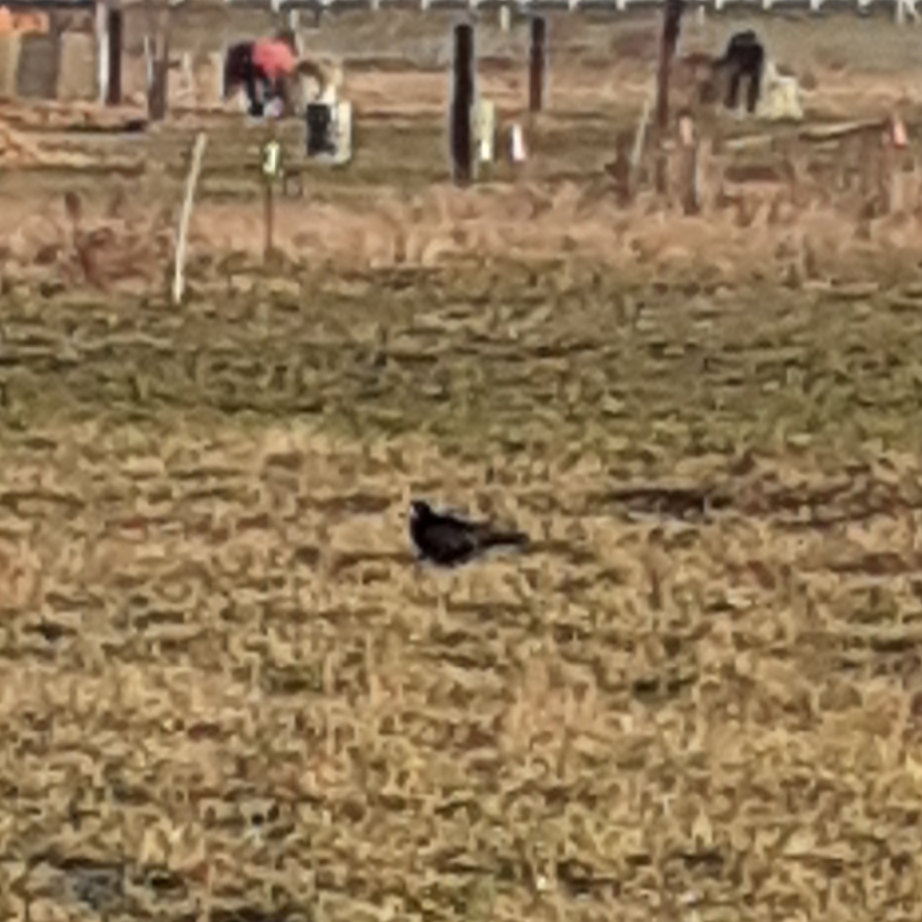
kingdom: Animalia
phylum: Chordata
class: Aves
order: Passeriformes
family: Corvidae
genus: Corvus
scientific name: Corvus frugilegus
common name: Rook
